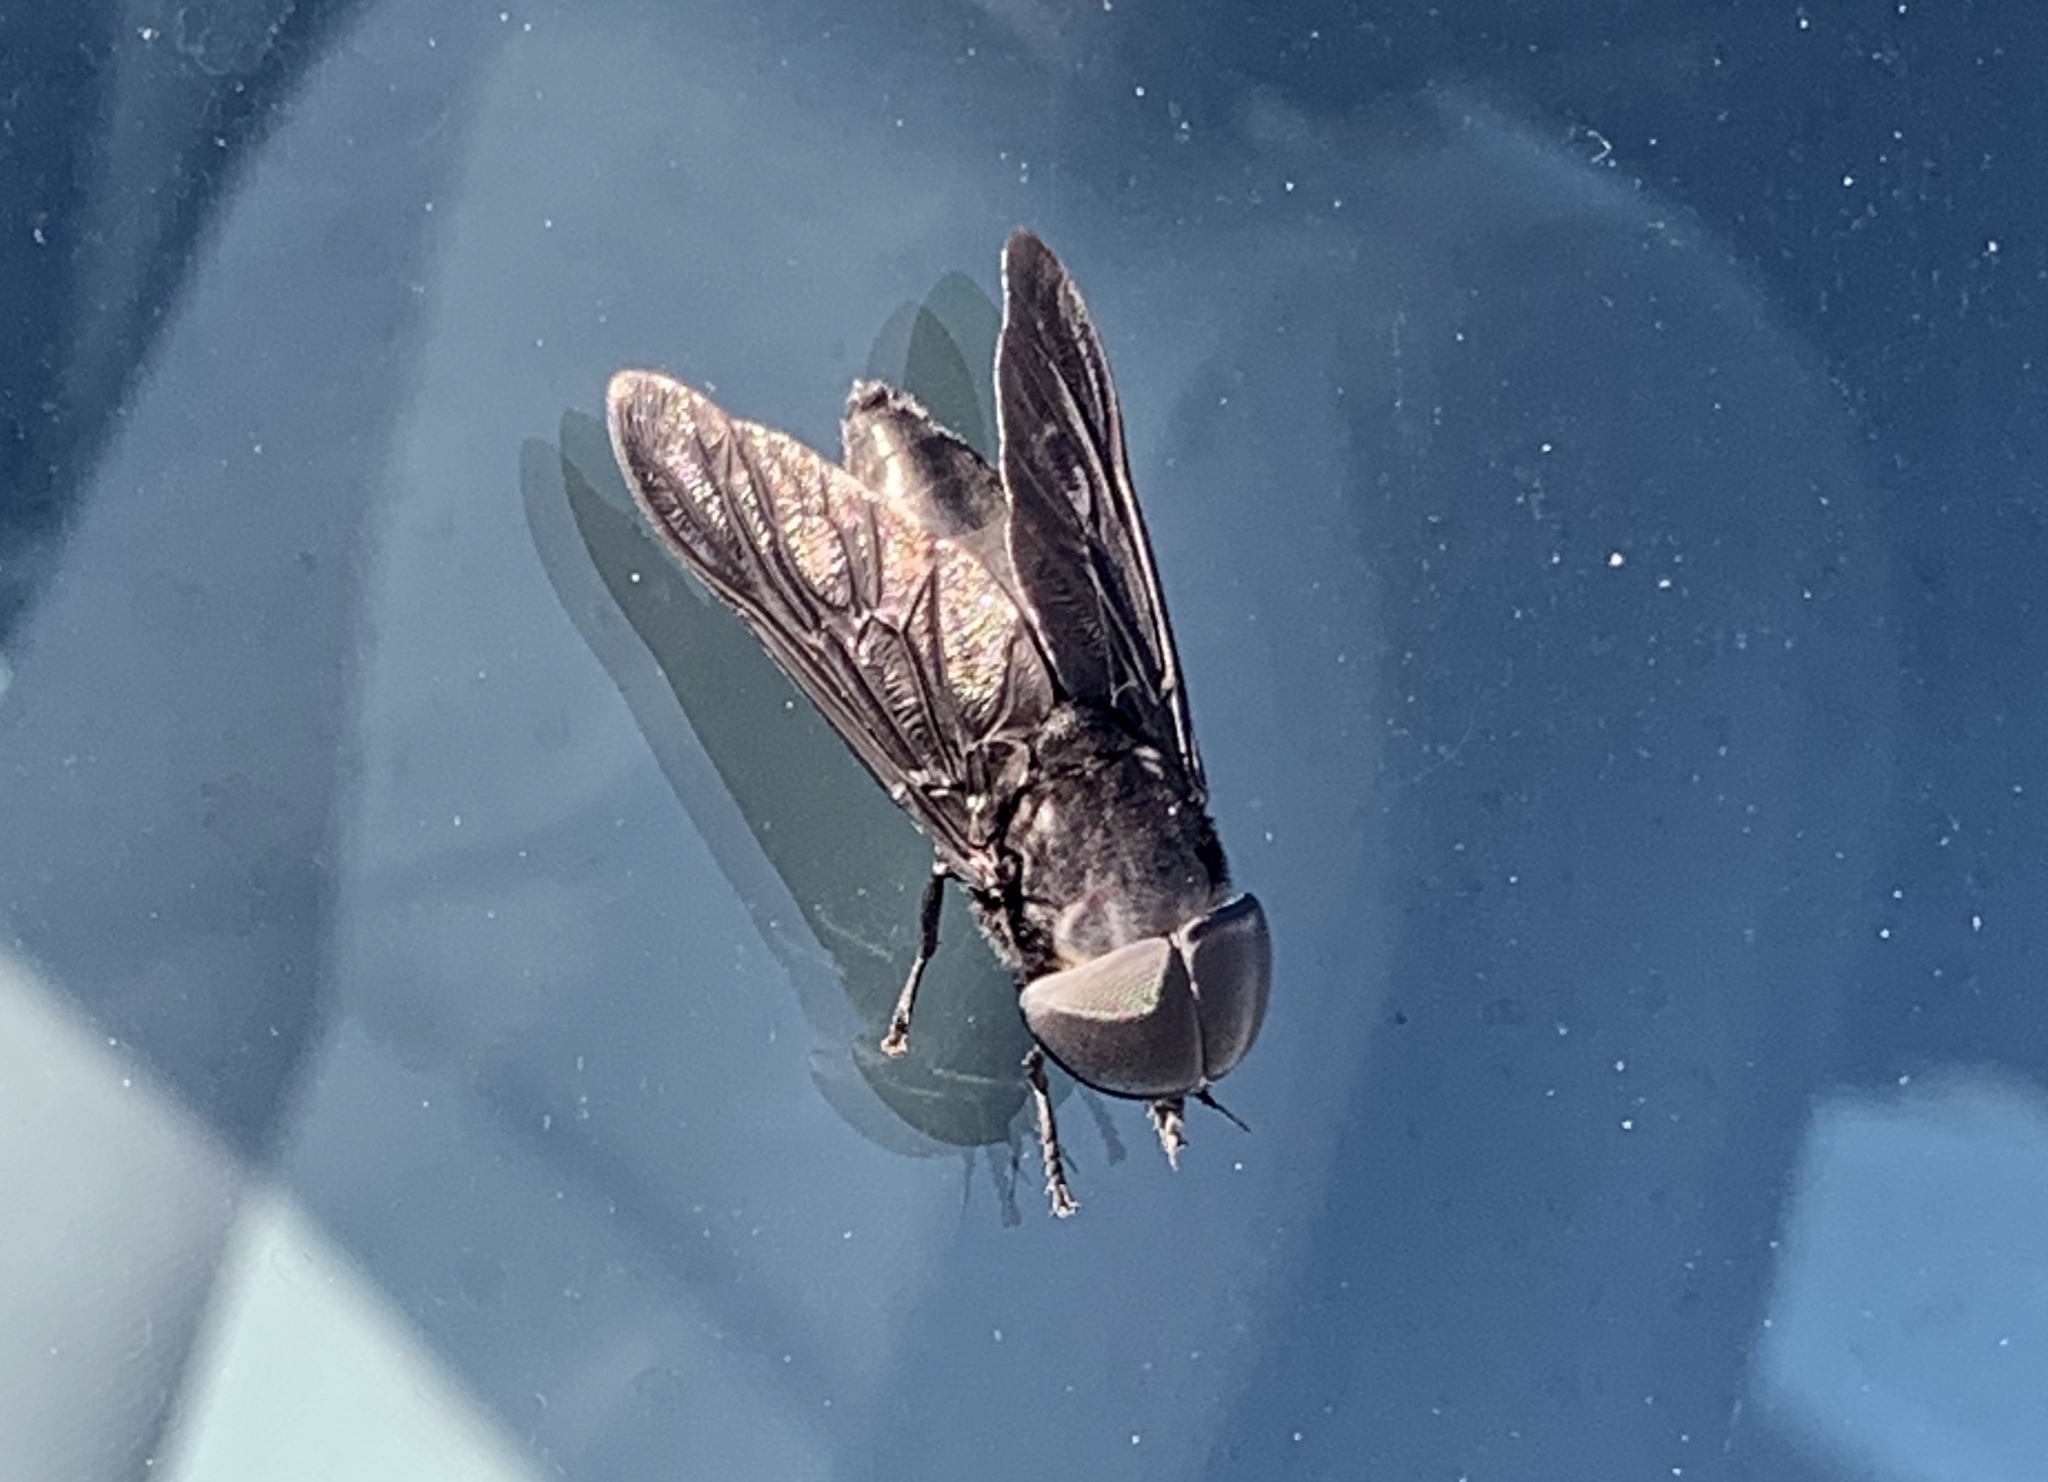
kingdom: Animalia
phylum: Arthropoda
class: Insecta
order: Diptera
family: Tabanidae
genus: Tabanus
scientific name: Tabanus atratus
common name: Black horse fly
